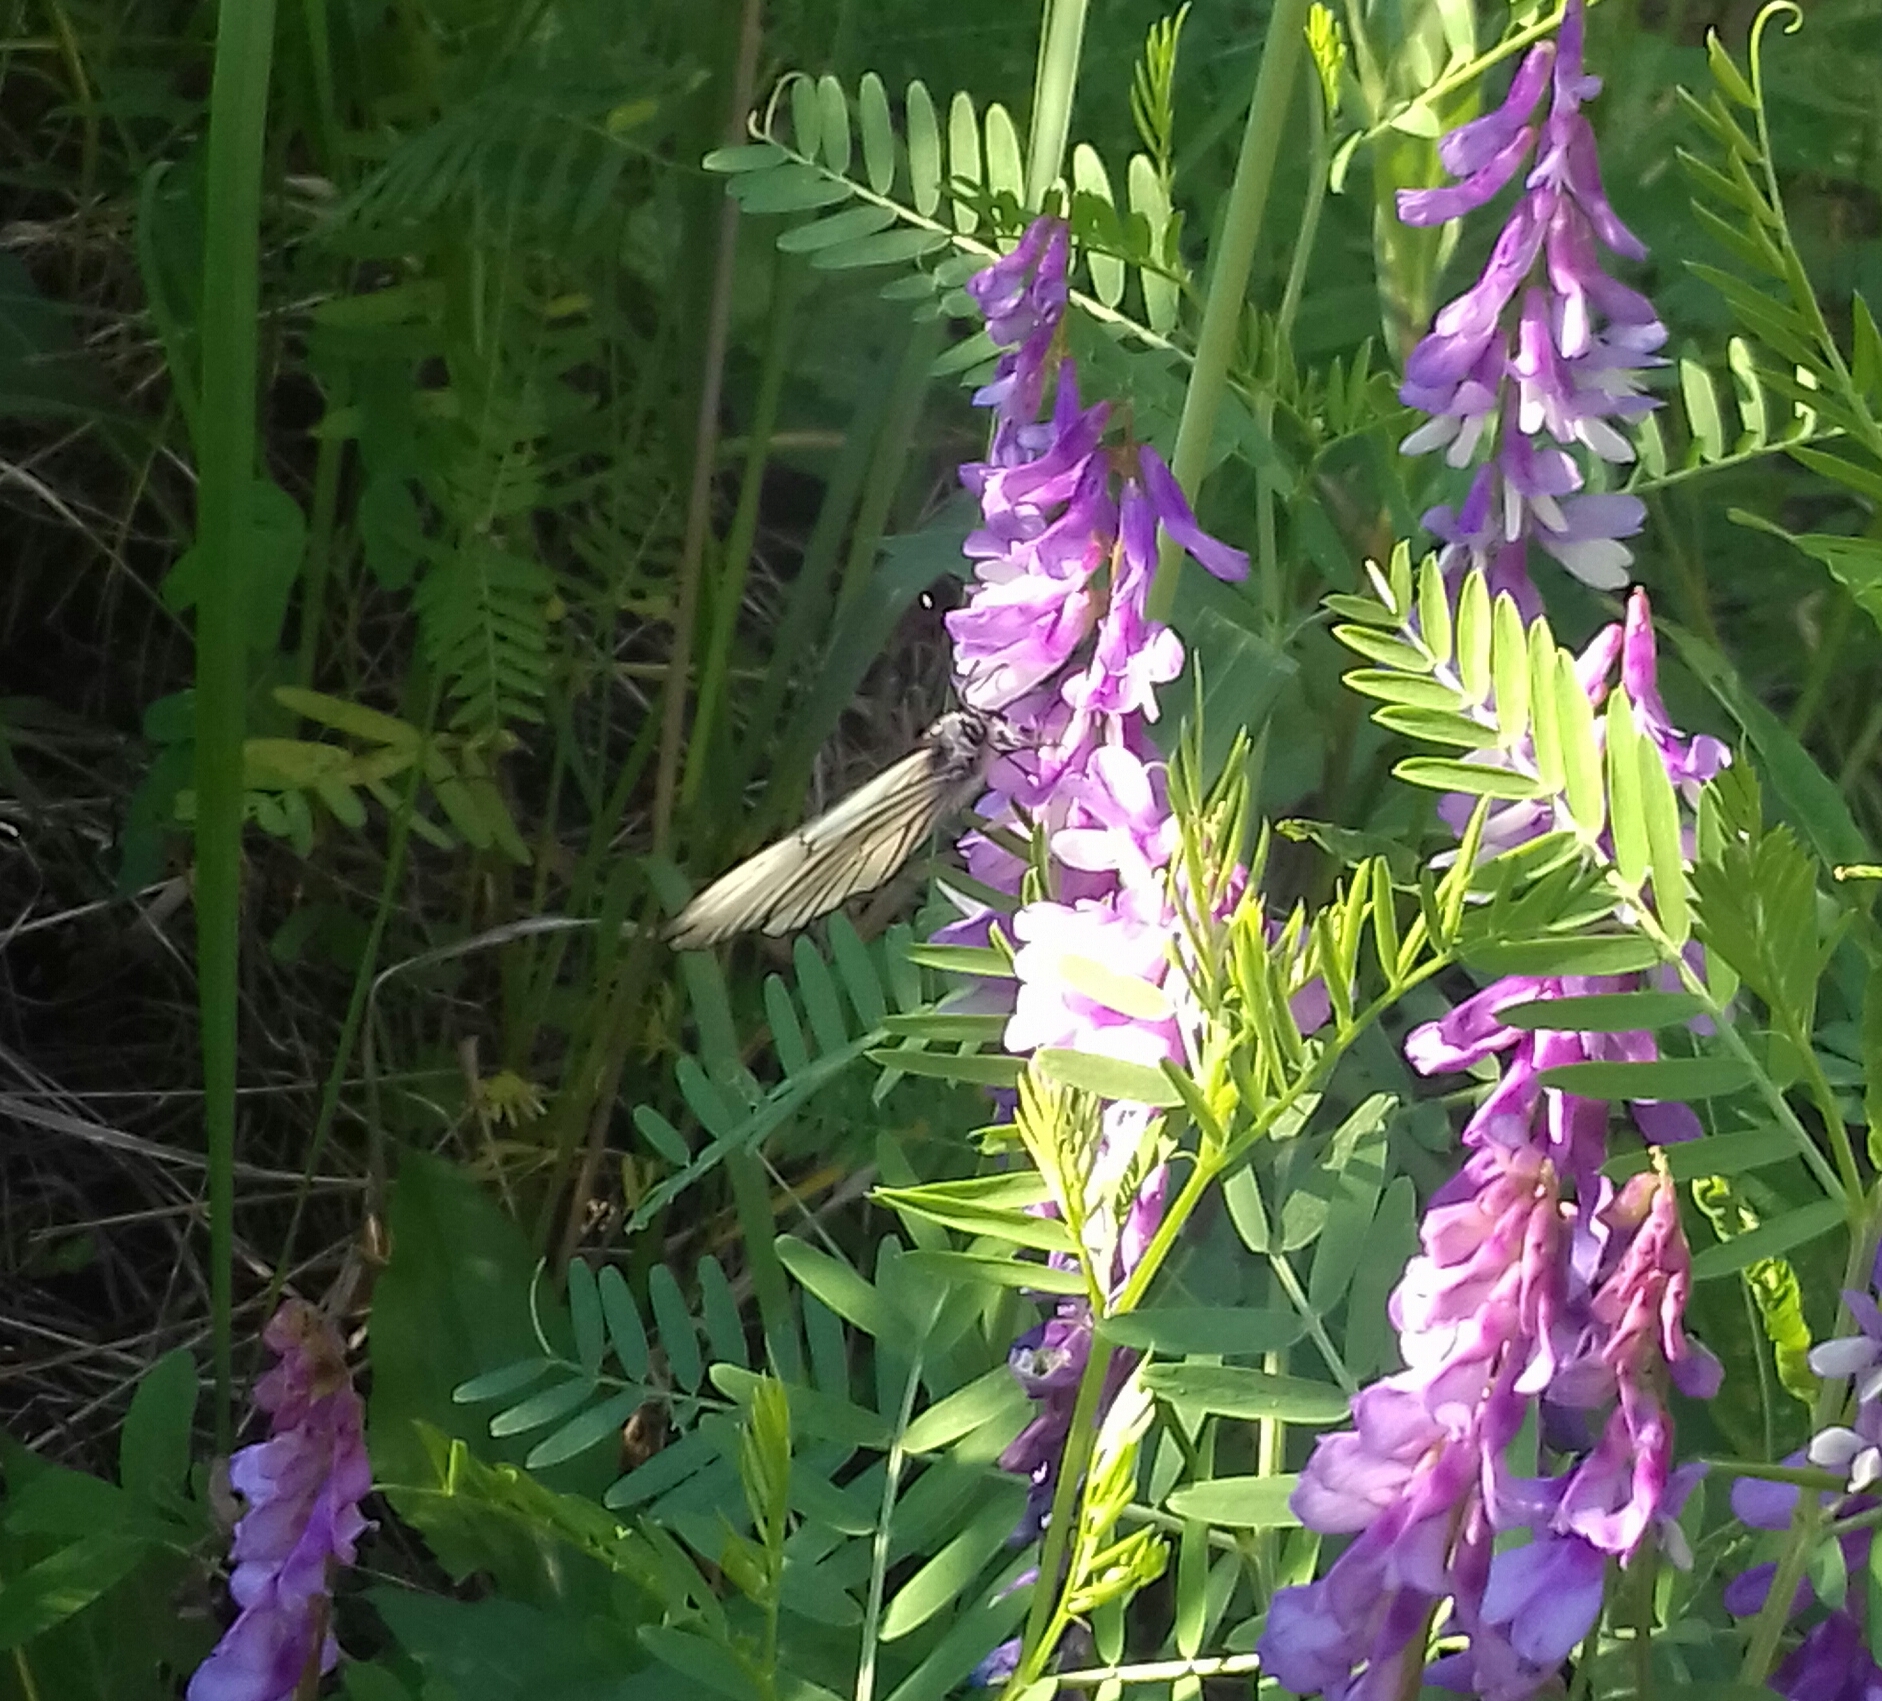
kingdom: Animalia
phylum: Arthropoda
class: Insecta
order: Lepidoptera
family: Pieridae
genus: Aporia
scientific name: Aporia crataegi
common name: Black-veined white
